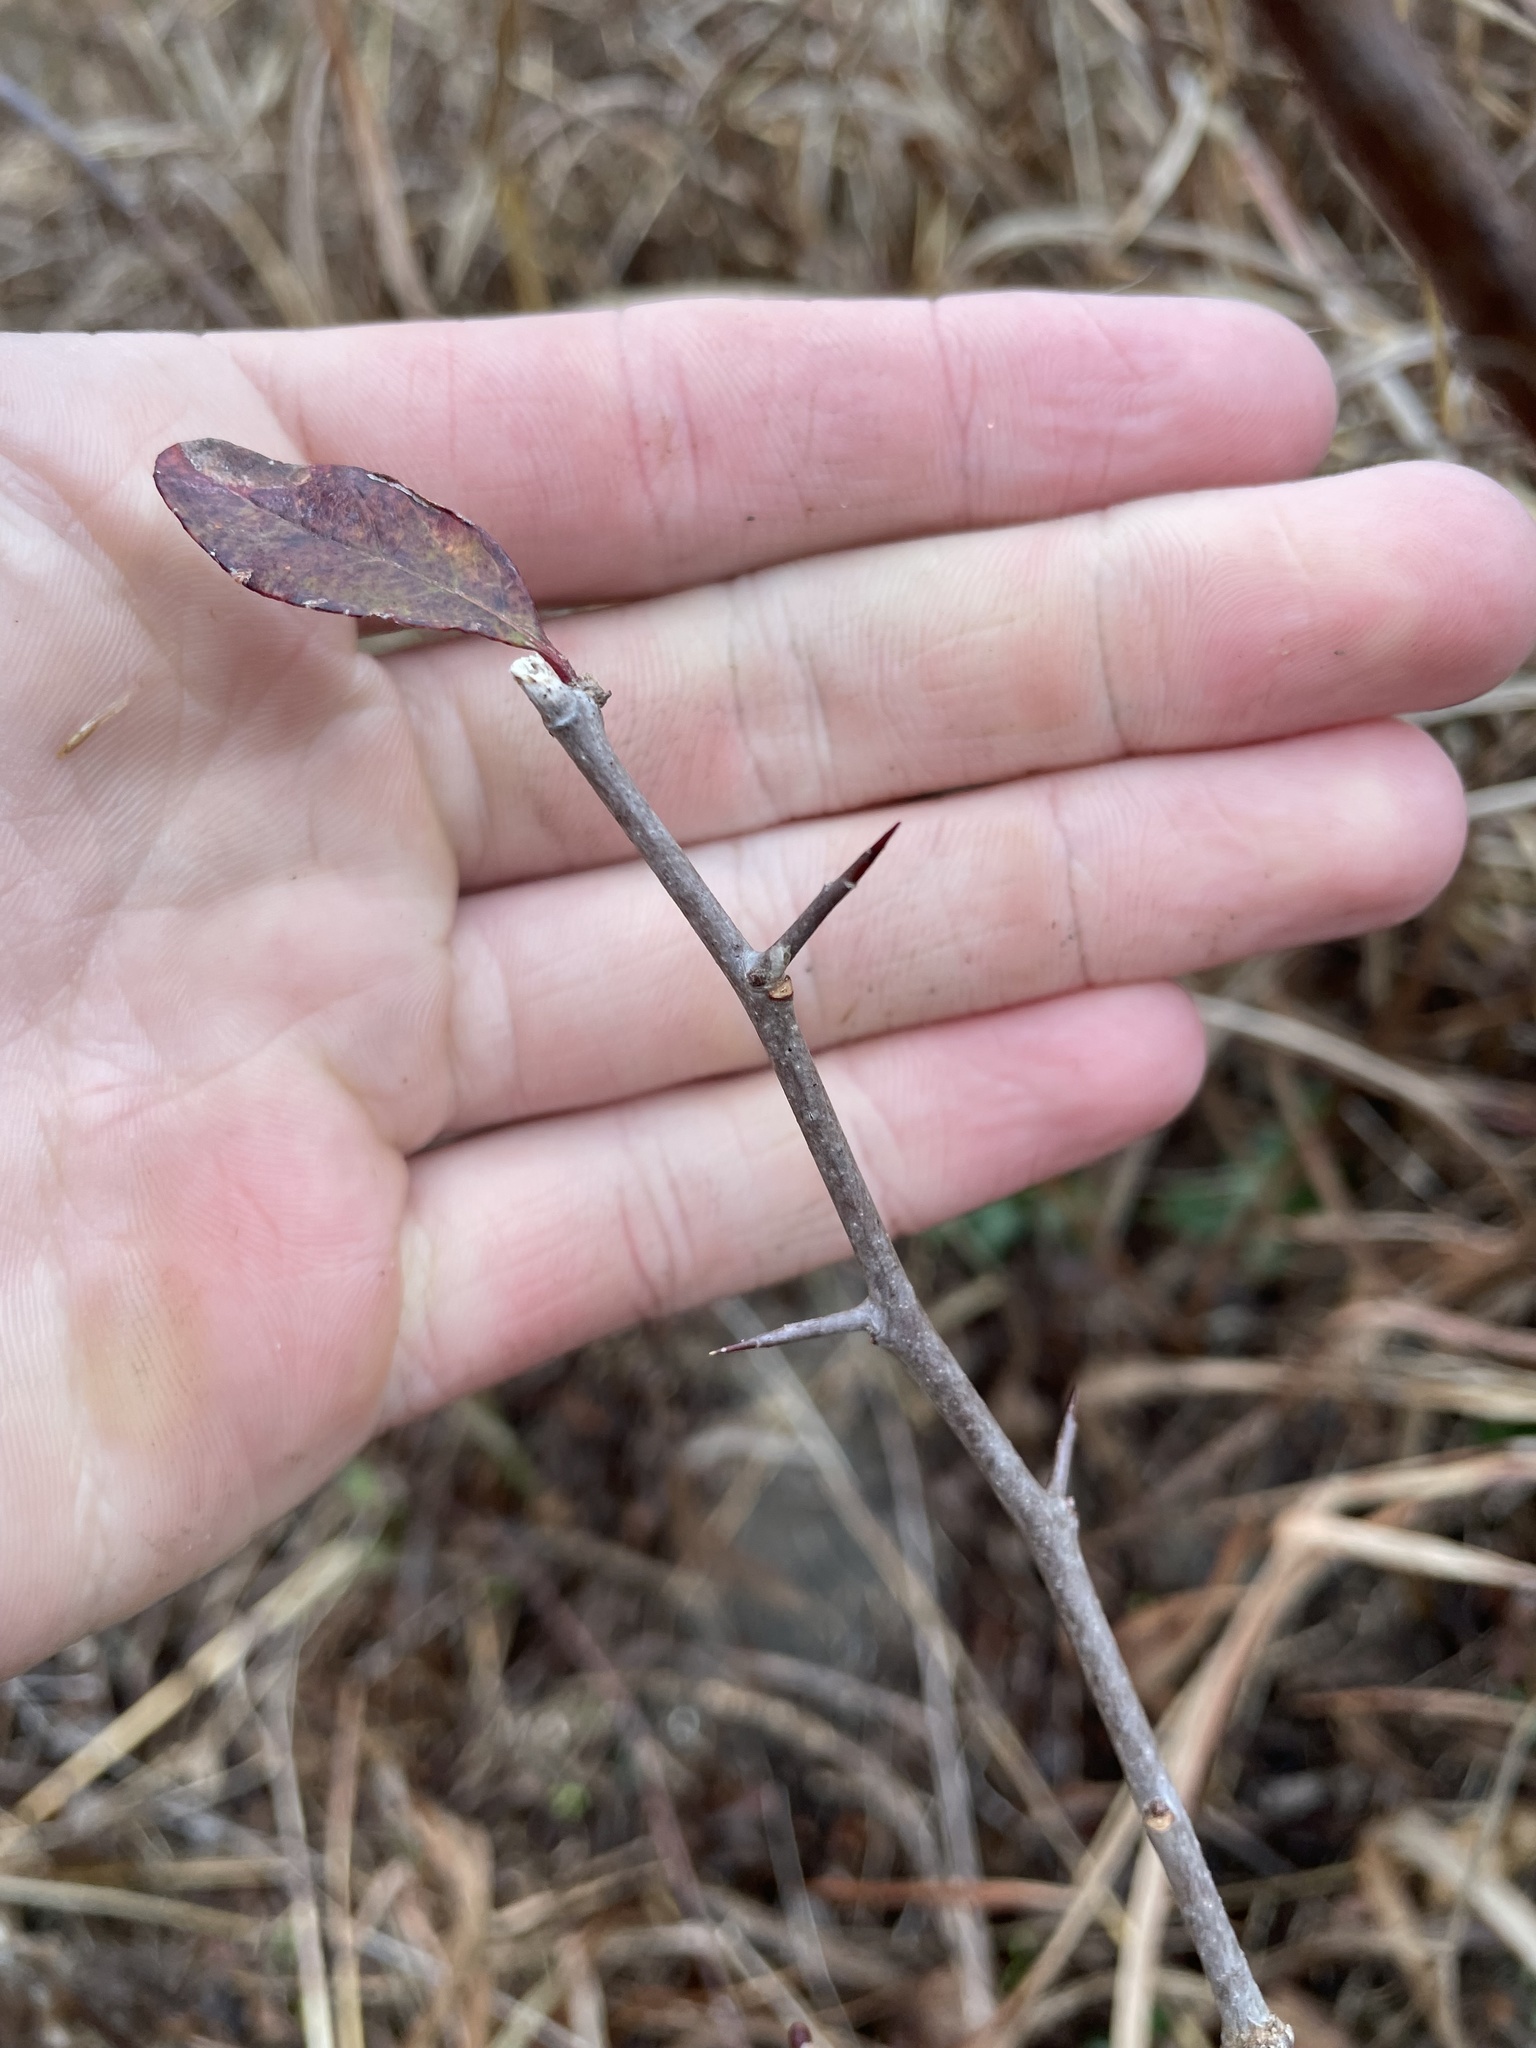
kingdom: Plantae
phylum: Tracheophyta
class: Magnoliopsida
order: Ericales
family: Sapotaceae
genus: Sideroxylon
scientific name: Sideroxylon lanuginosum
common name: Chittamwood
